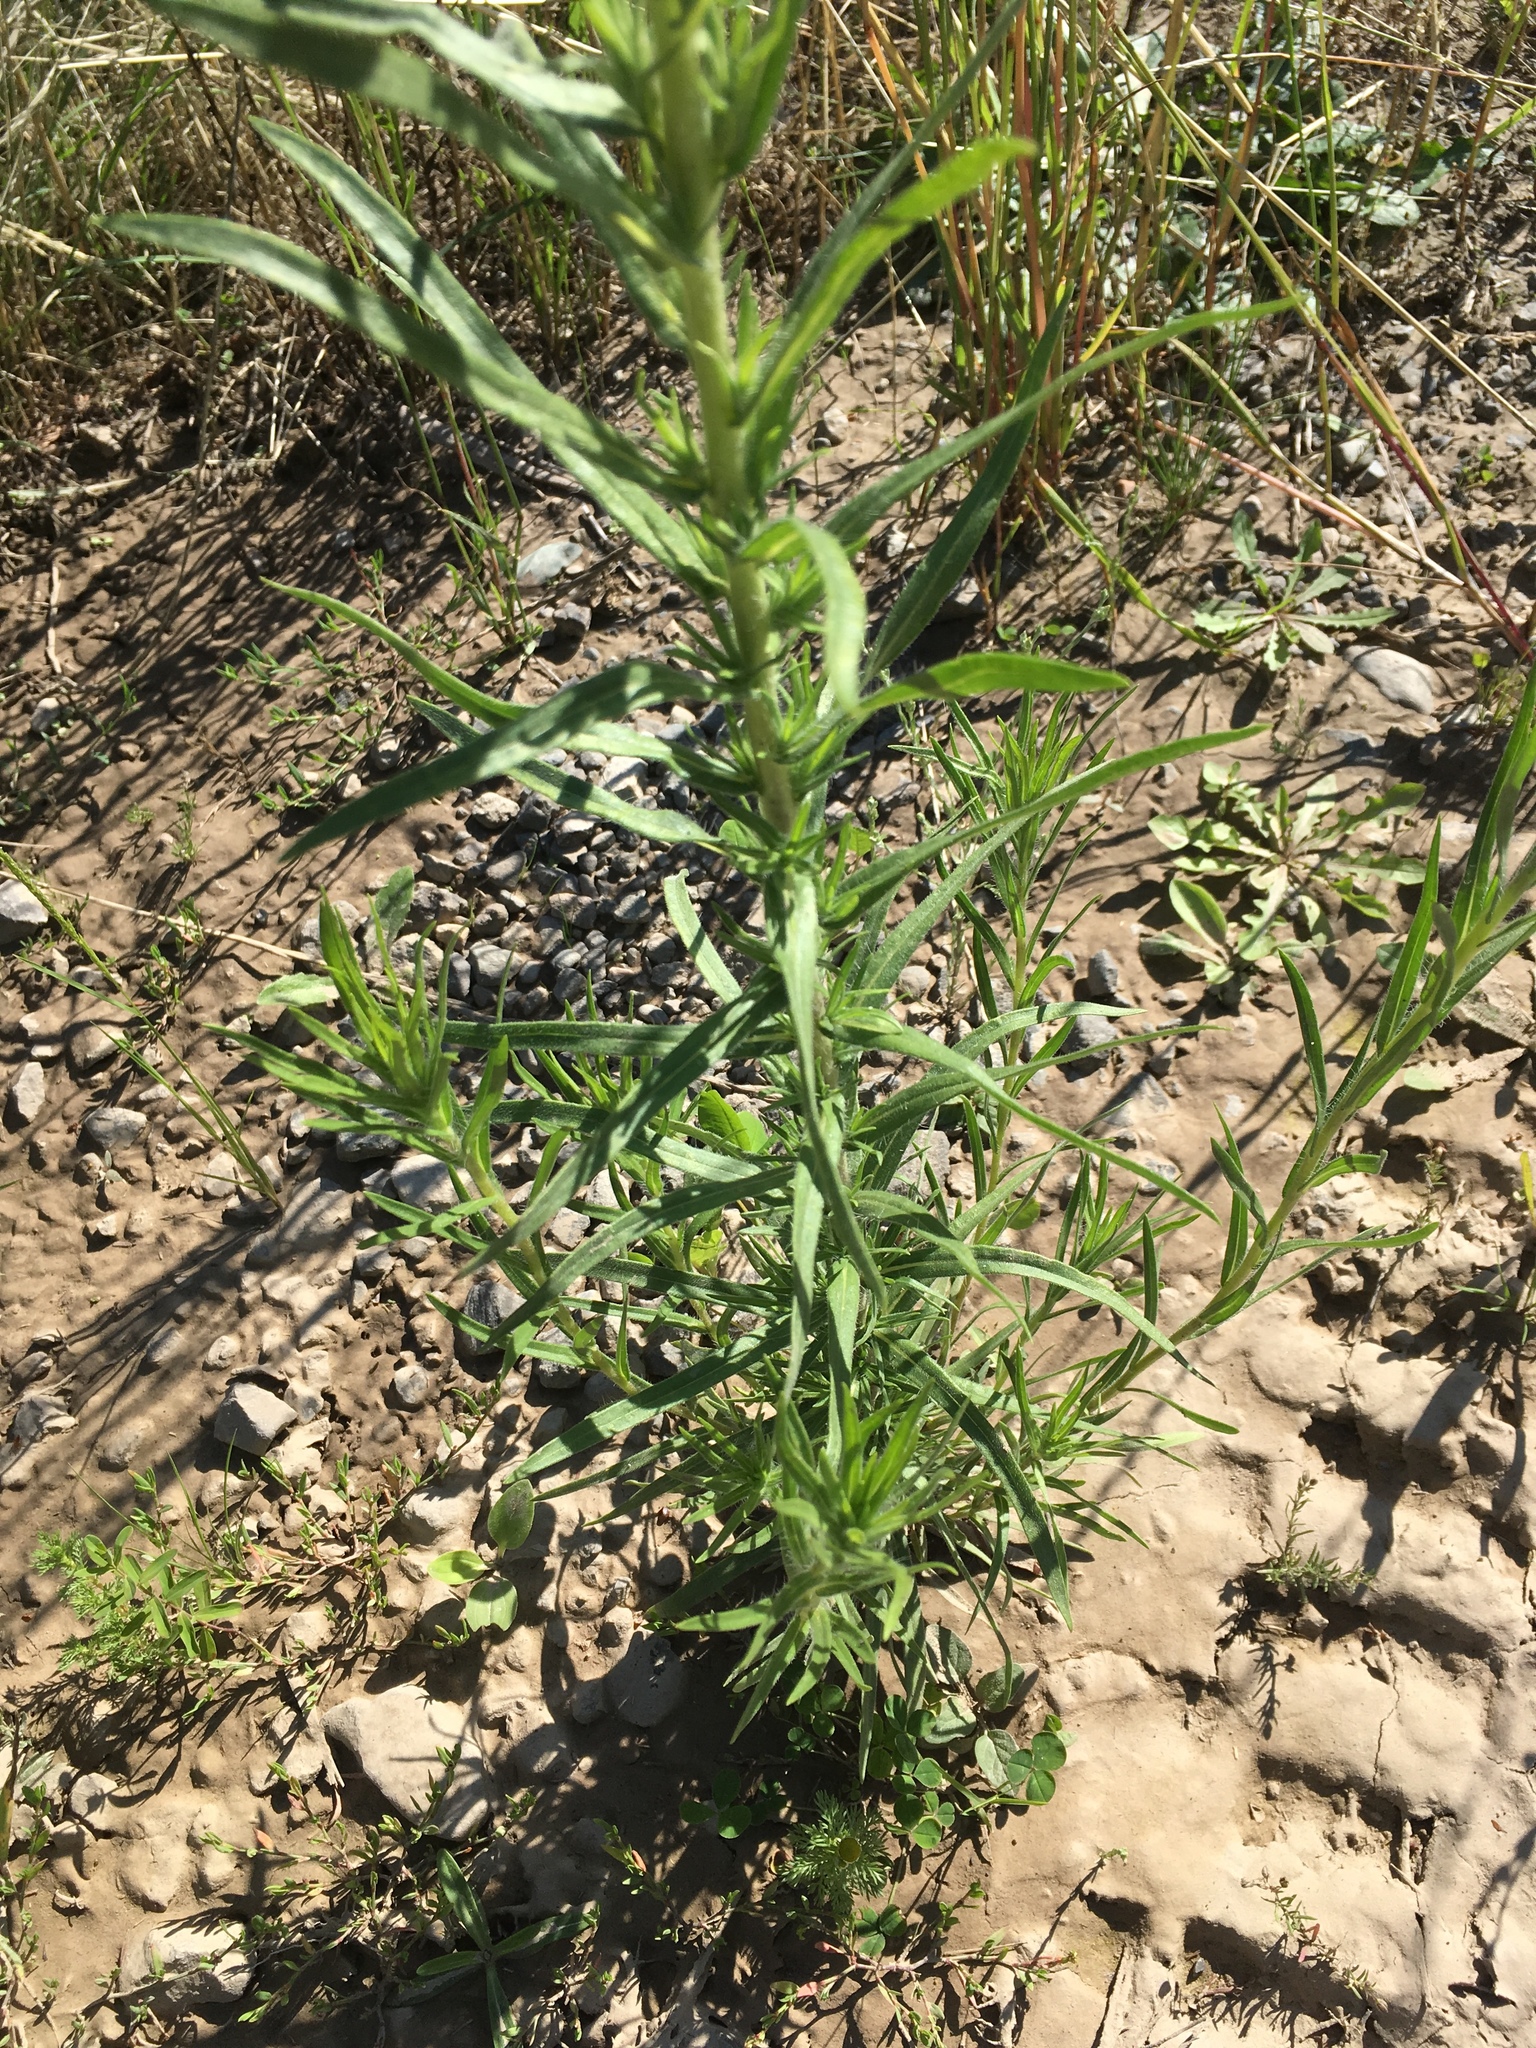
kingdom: Plantae
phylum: Tracheophyta
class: Magnoliopsida
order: Asterales
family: Asteraceae
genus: Madia
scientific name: Madia glomerata
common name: Mountain tarweed
